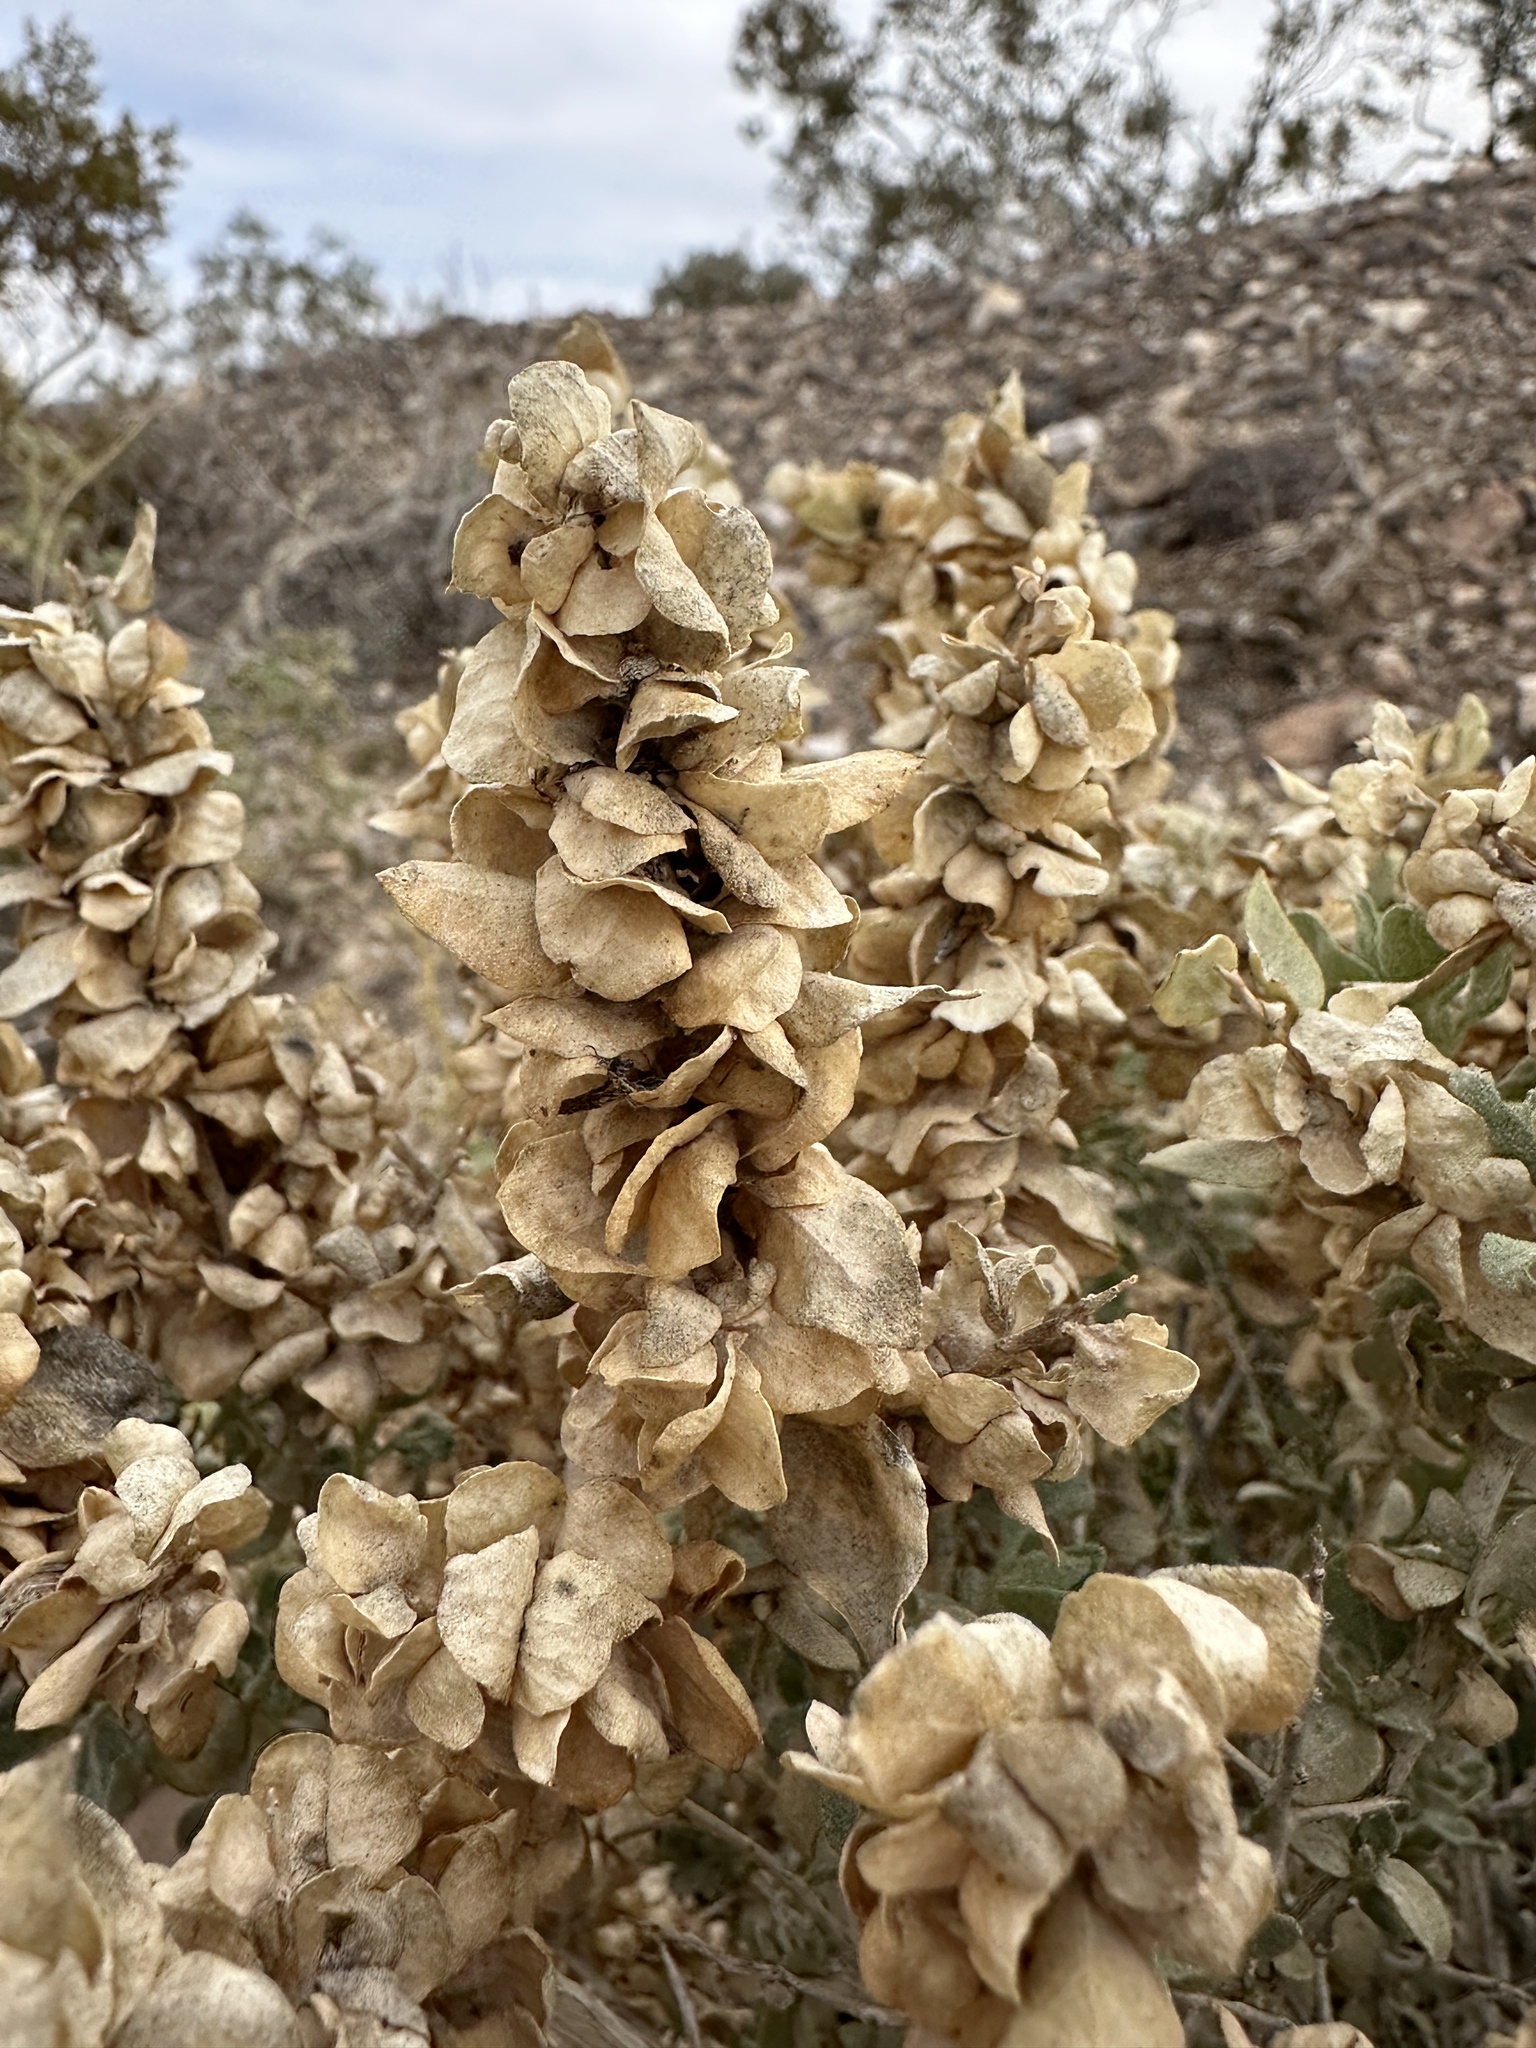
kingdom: Plantae
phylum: Tracheophyta
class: Magnoliopsida
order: Caryophyllales
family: Amaranthaceae
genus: Atriplex
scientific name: Atriplex confertifolia
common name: Shadscale
